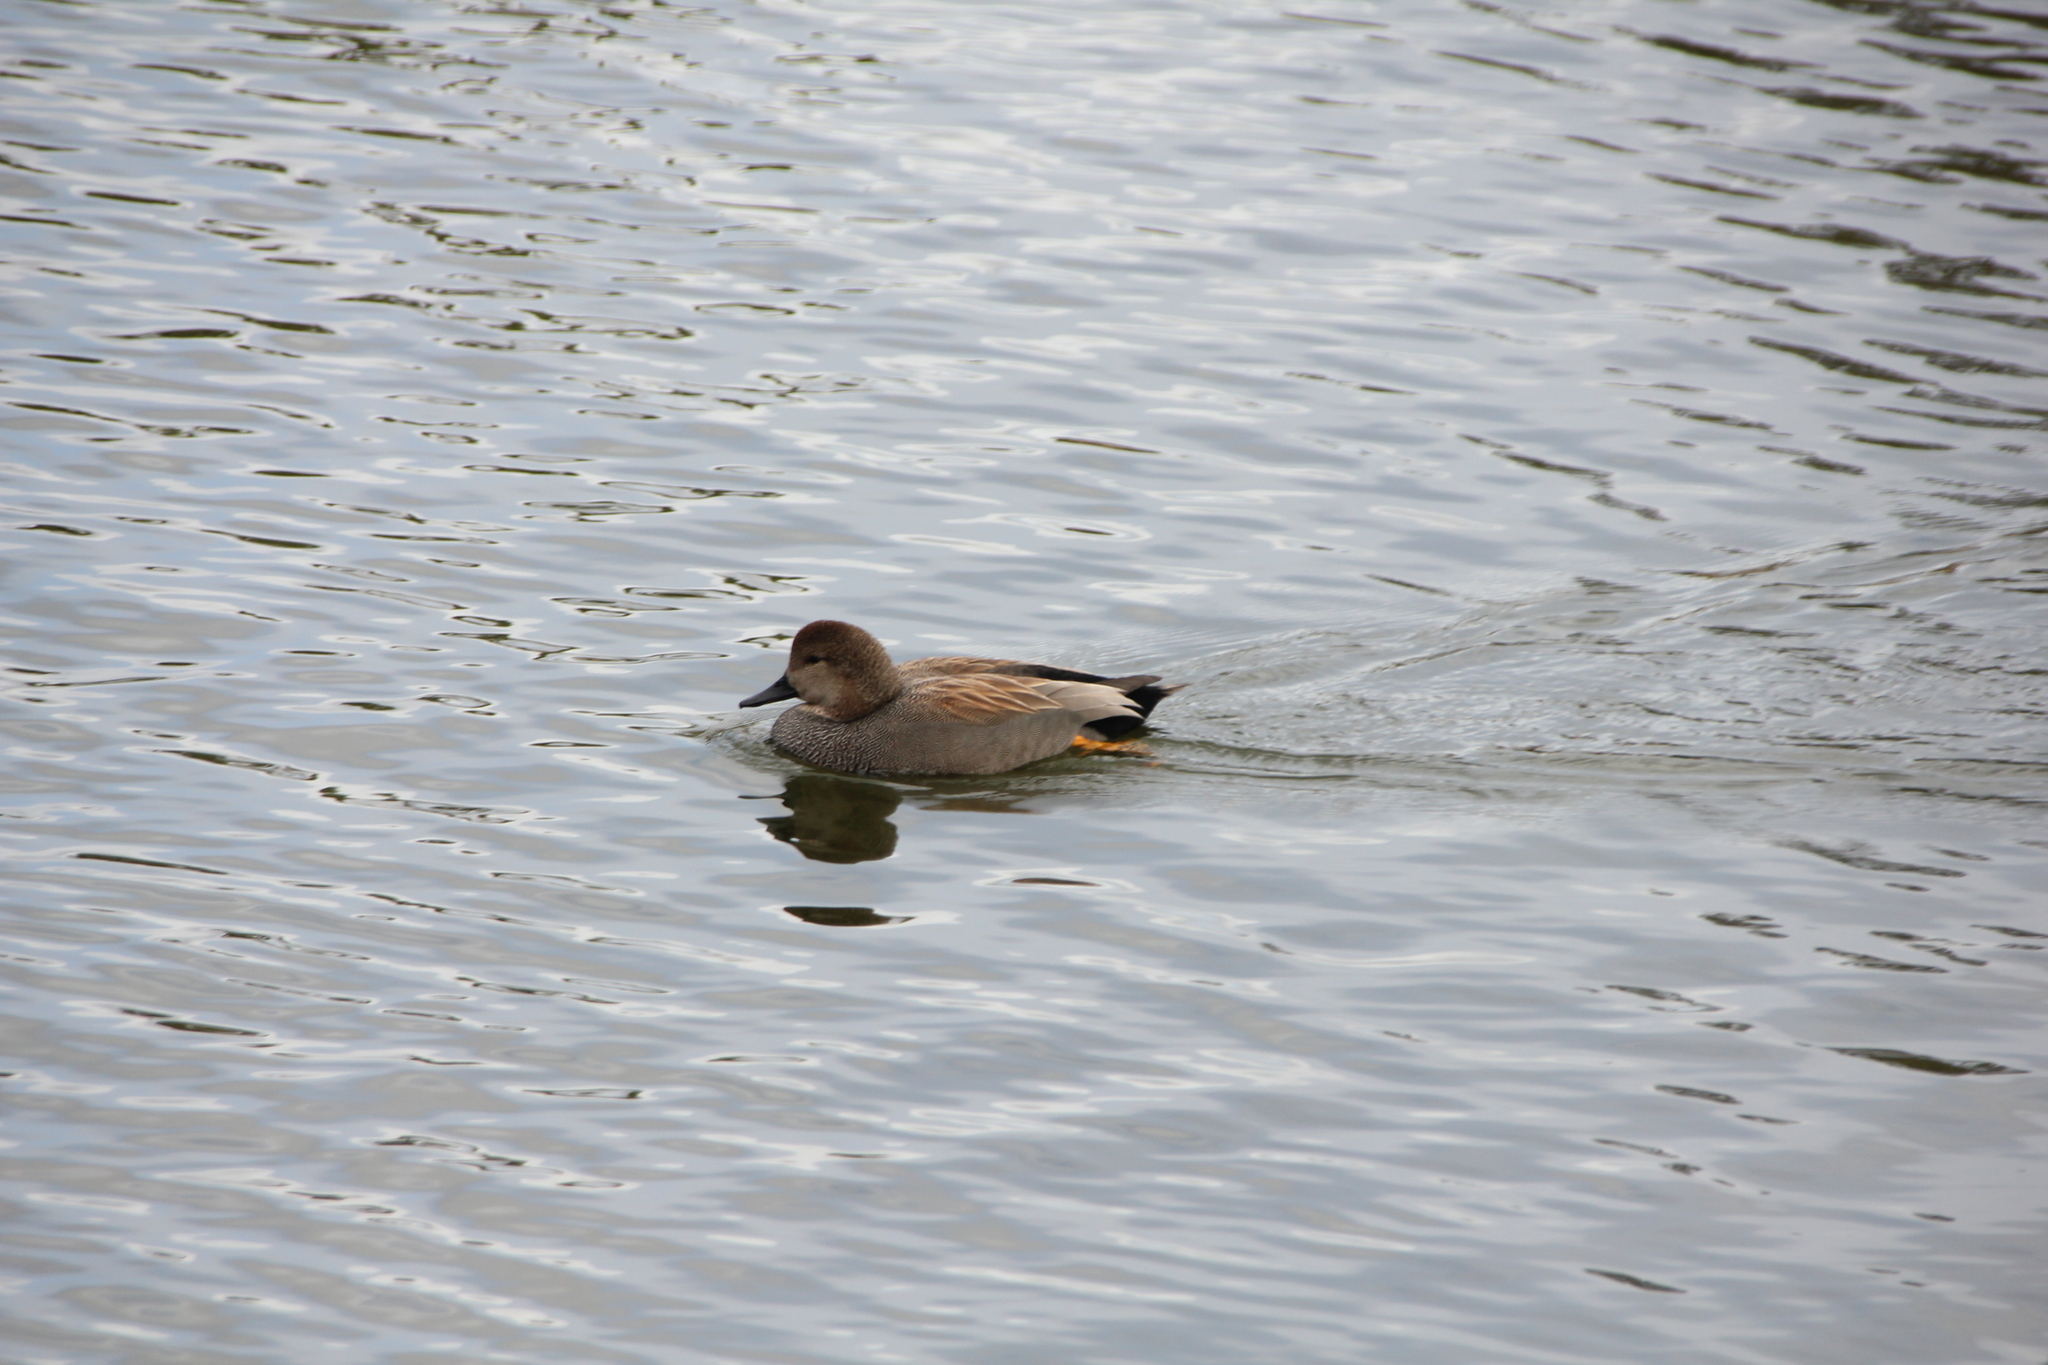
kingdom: Animalia
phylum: Chordata
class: Aves
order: Anseriformes
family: Anatidae
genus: Mareca
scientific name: Mareca strepera
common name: Gadwall
